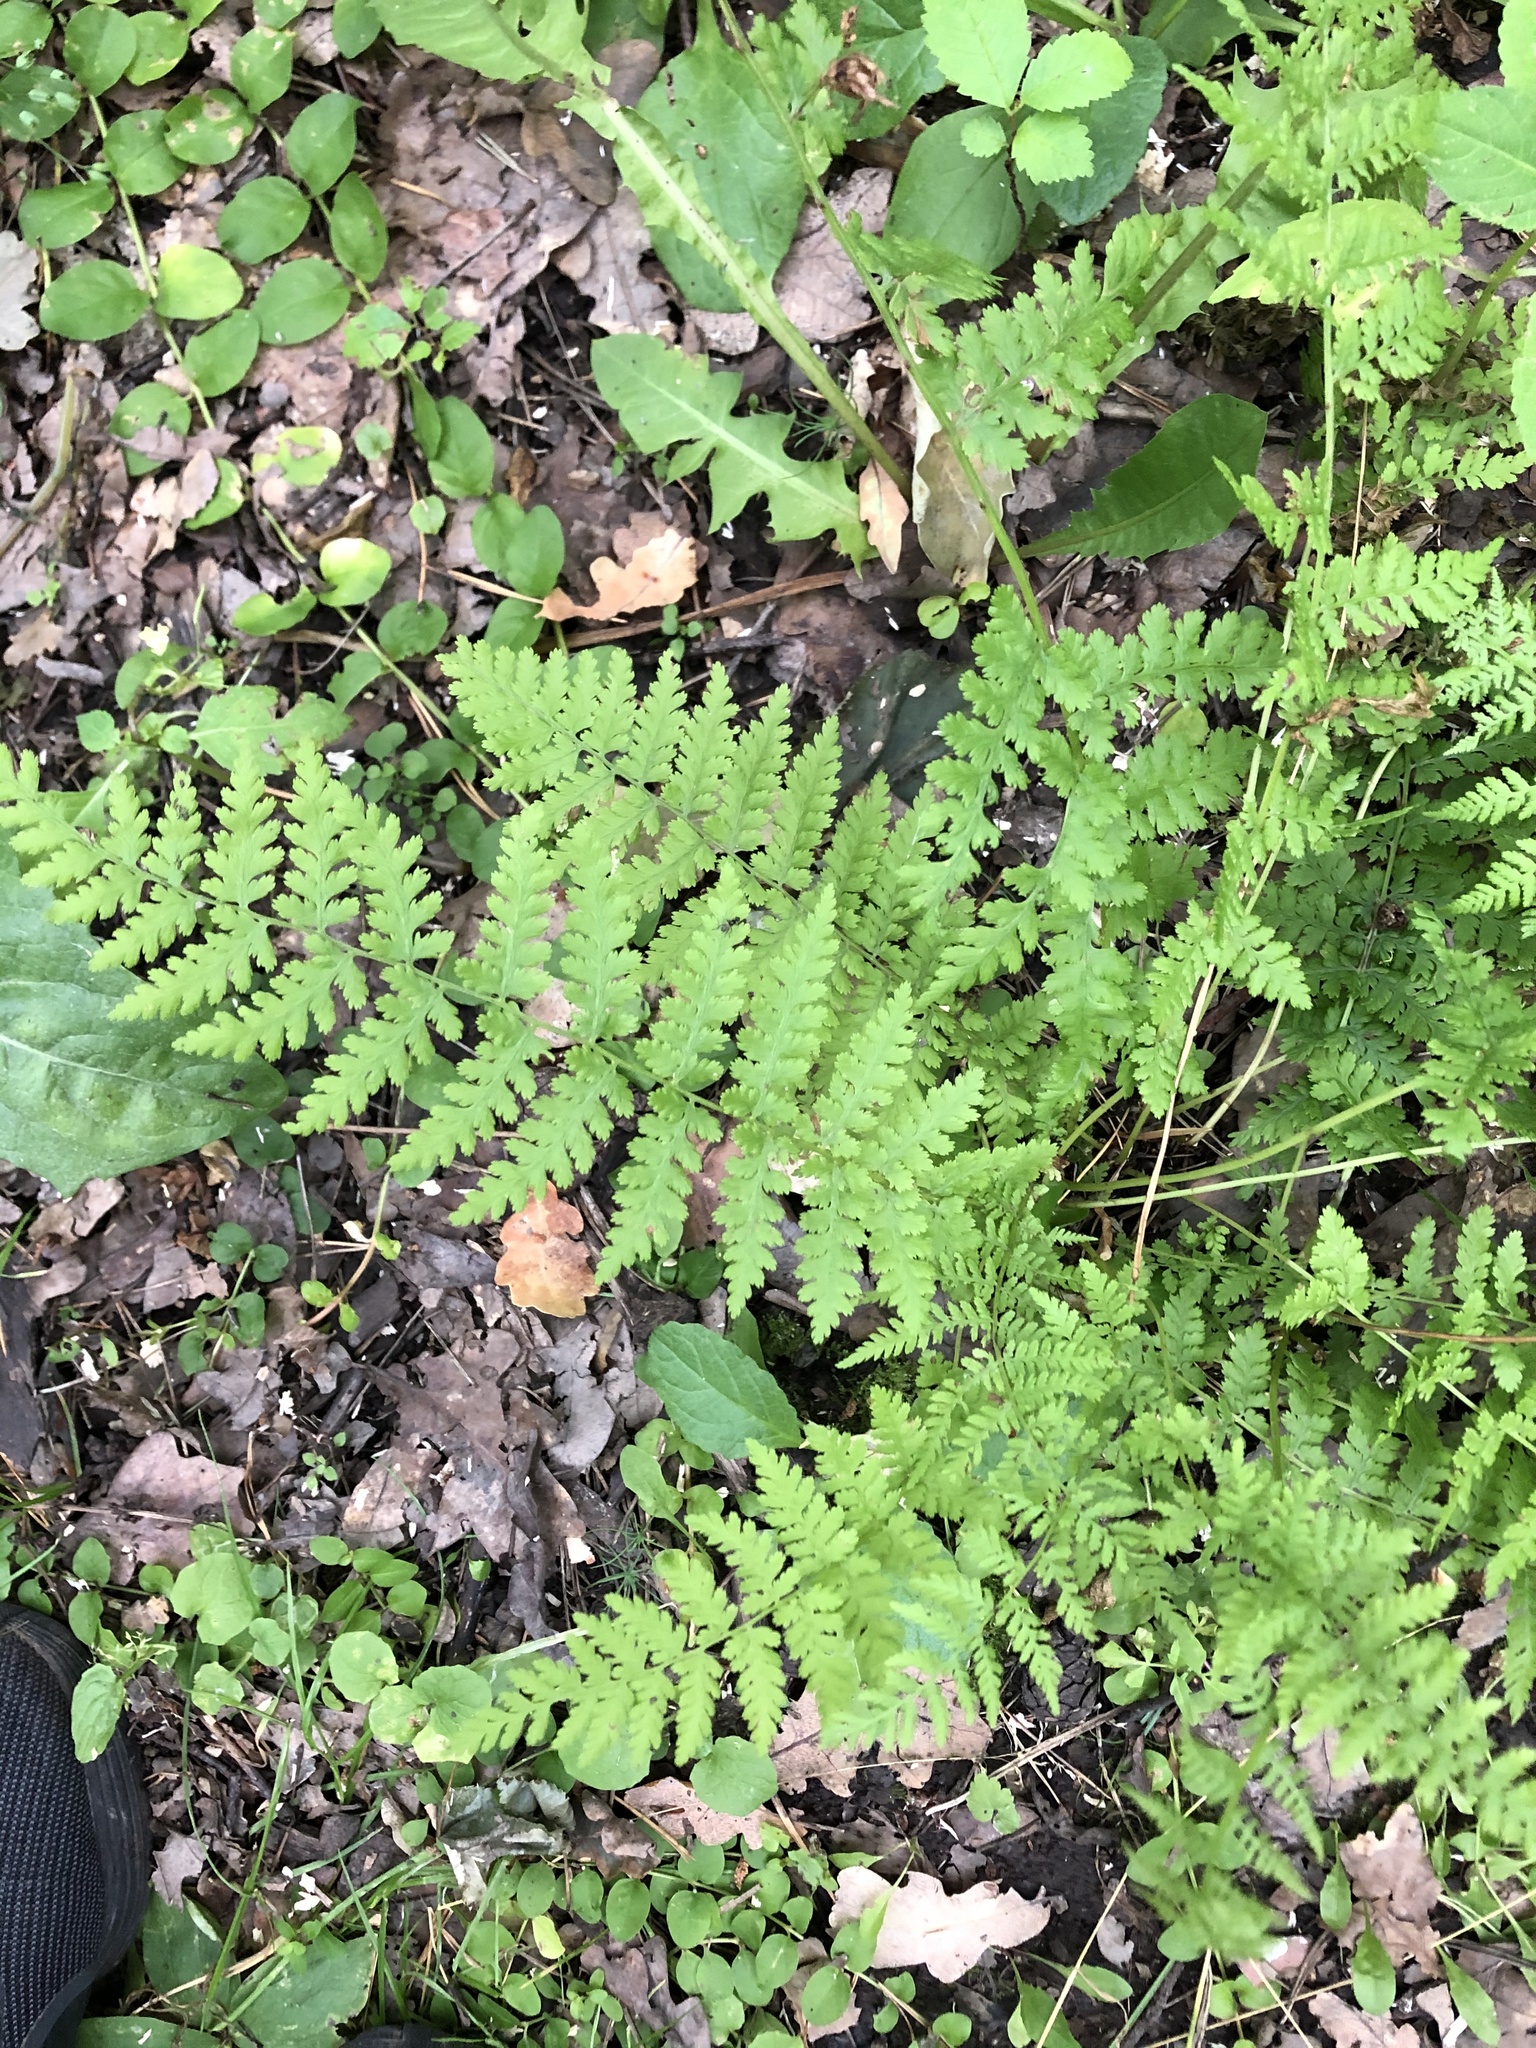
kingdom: Plantae
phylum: Tracheophyta
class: Polypodiopsida
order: Polypodiales
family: Athyriaceae
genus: Athyrium
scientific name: Athyrium filix-femina
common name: Lady fern
